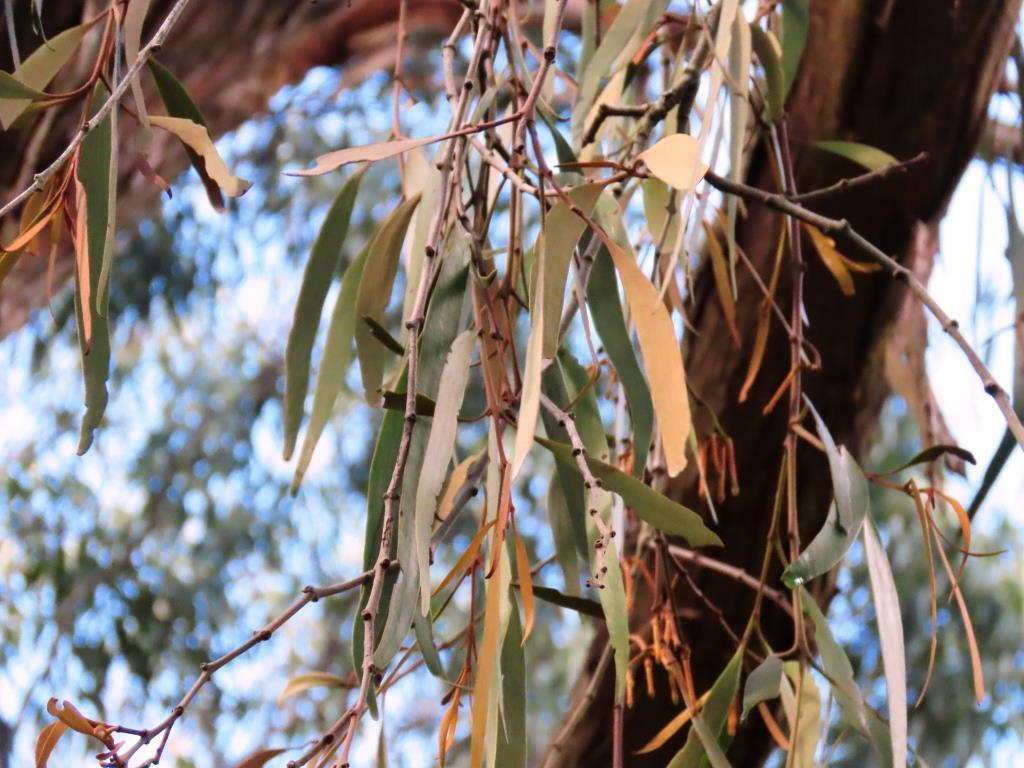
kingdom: Plantae
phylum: Tracheophyta
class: Magnoliopsida
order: Santalales
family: Loranthaceae
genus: Amyema
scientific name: Amyema pendula
